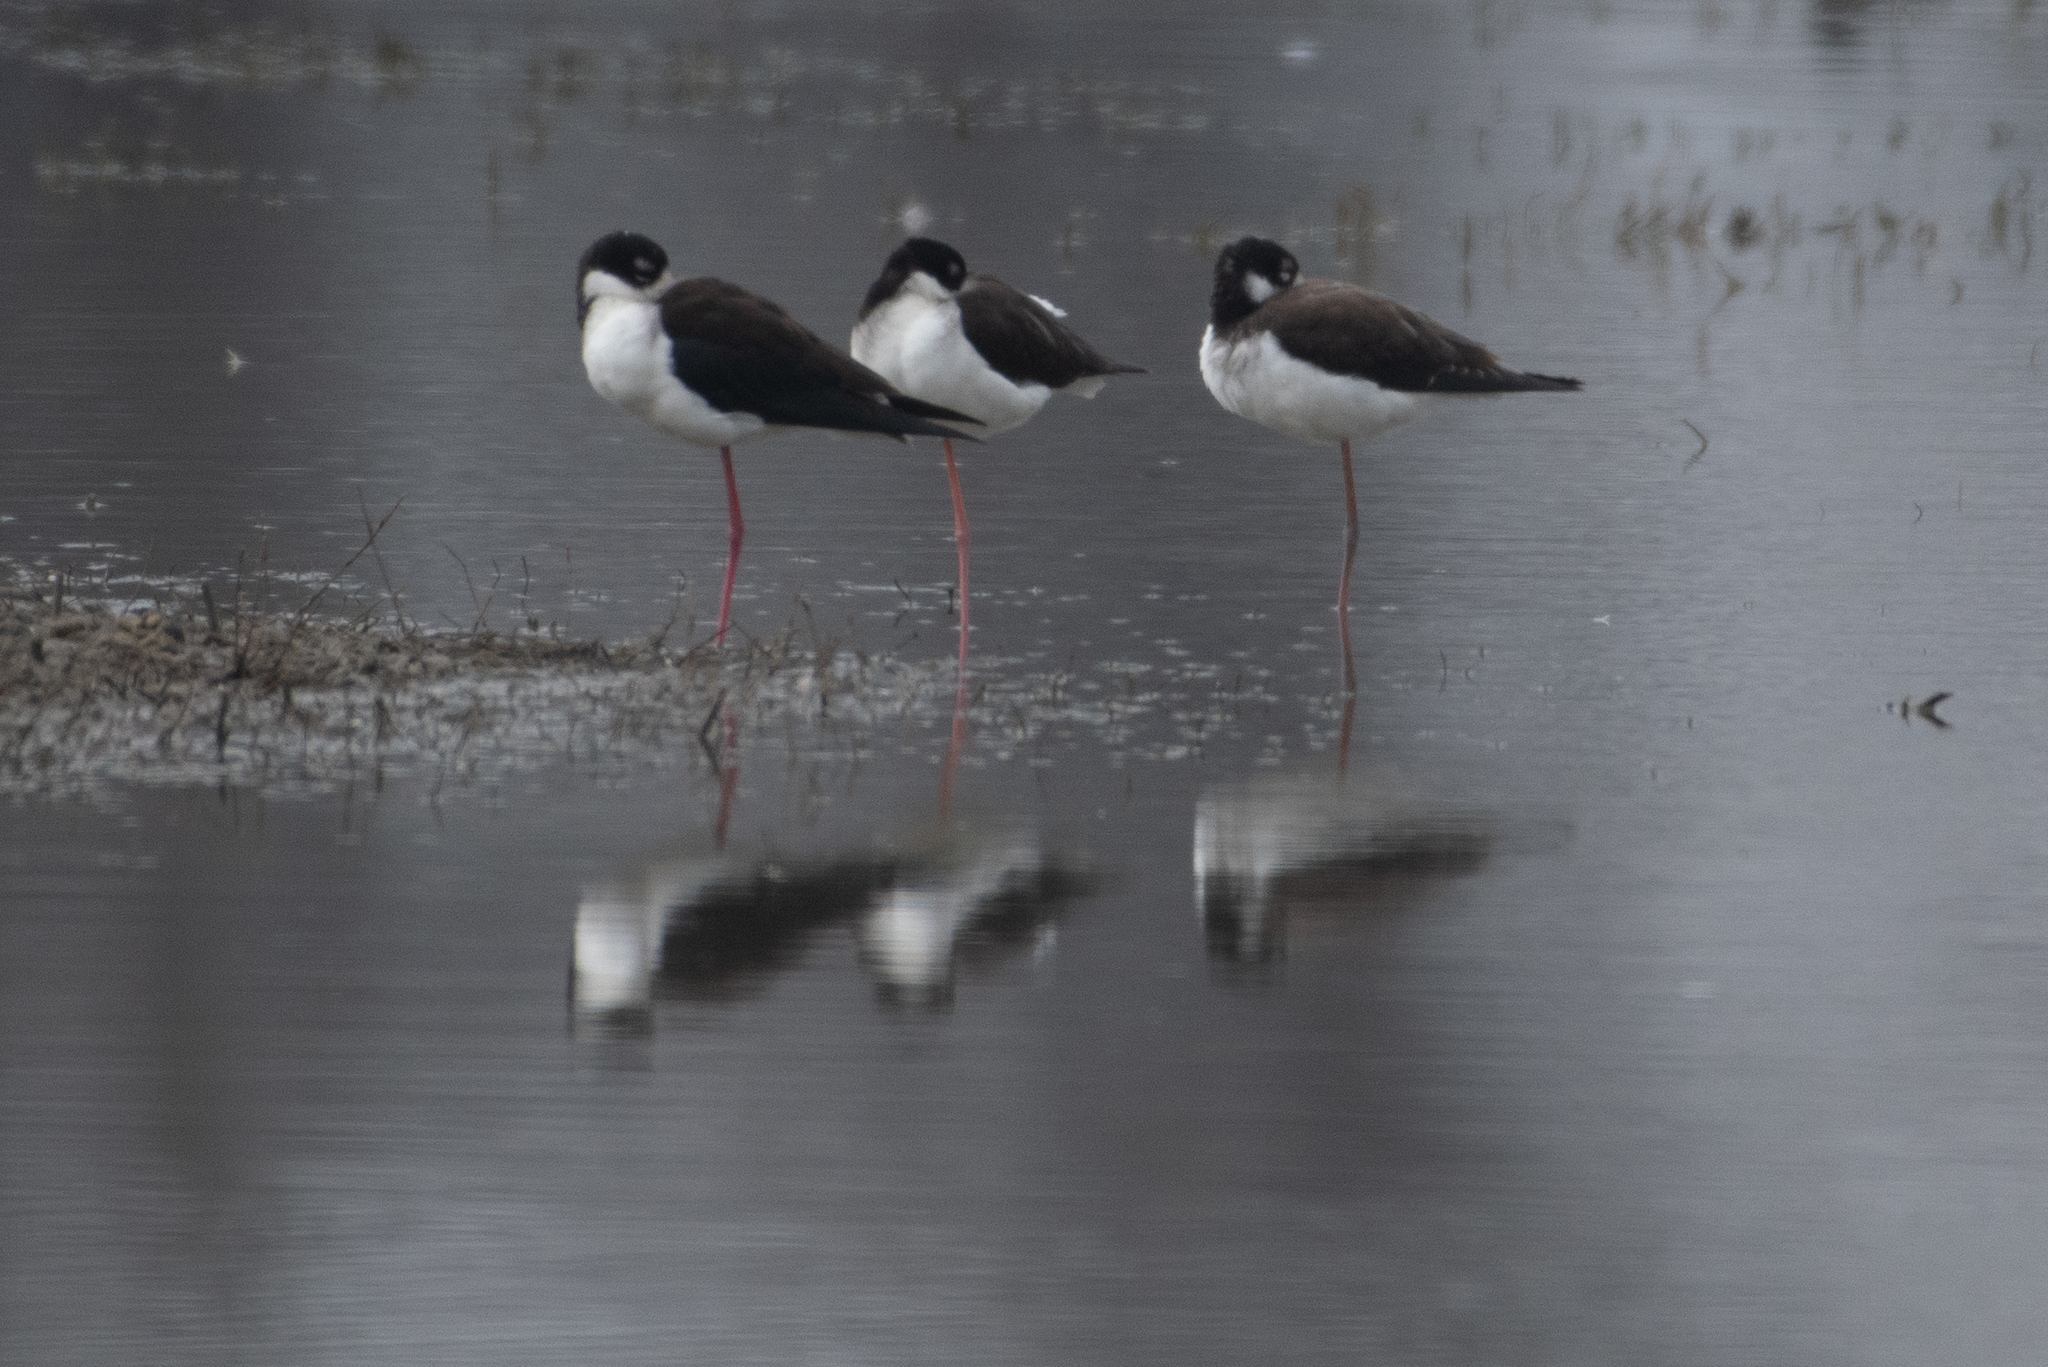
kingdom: Animalia
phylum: Chordata
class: Aves
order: Charadriiformes
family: Recurvirostridae
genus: Himantopus
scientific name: Himantopus mexicanus
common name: Black-necked stilt
